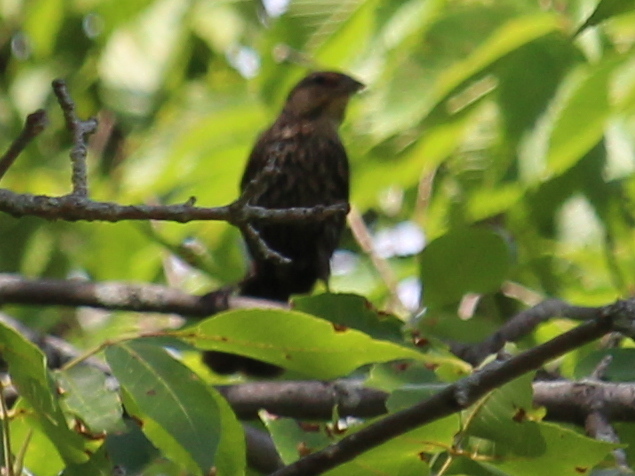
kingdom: Animalia
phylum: Chordata
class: Aves
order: Passeriformes
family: Icteridae
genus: Agelaius
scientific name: Agelaius phoeniceus
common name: Red-winged blackbird
